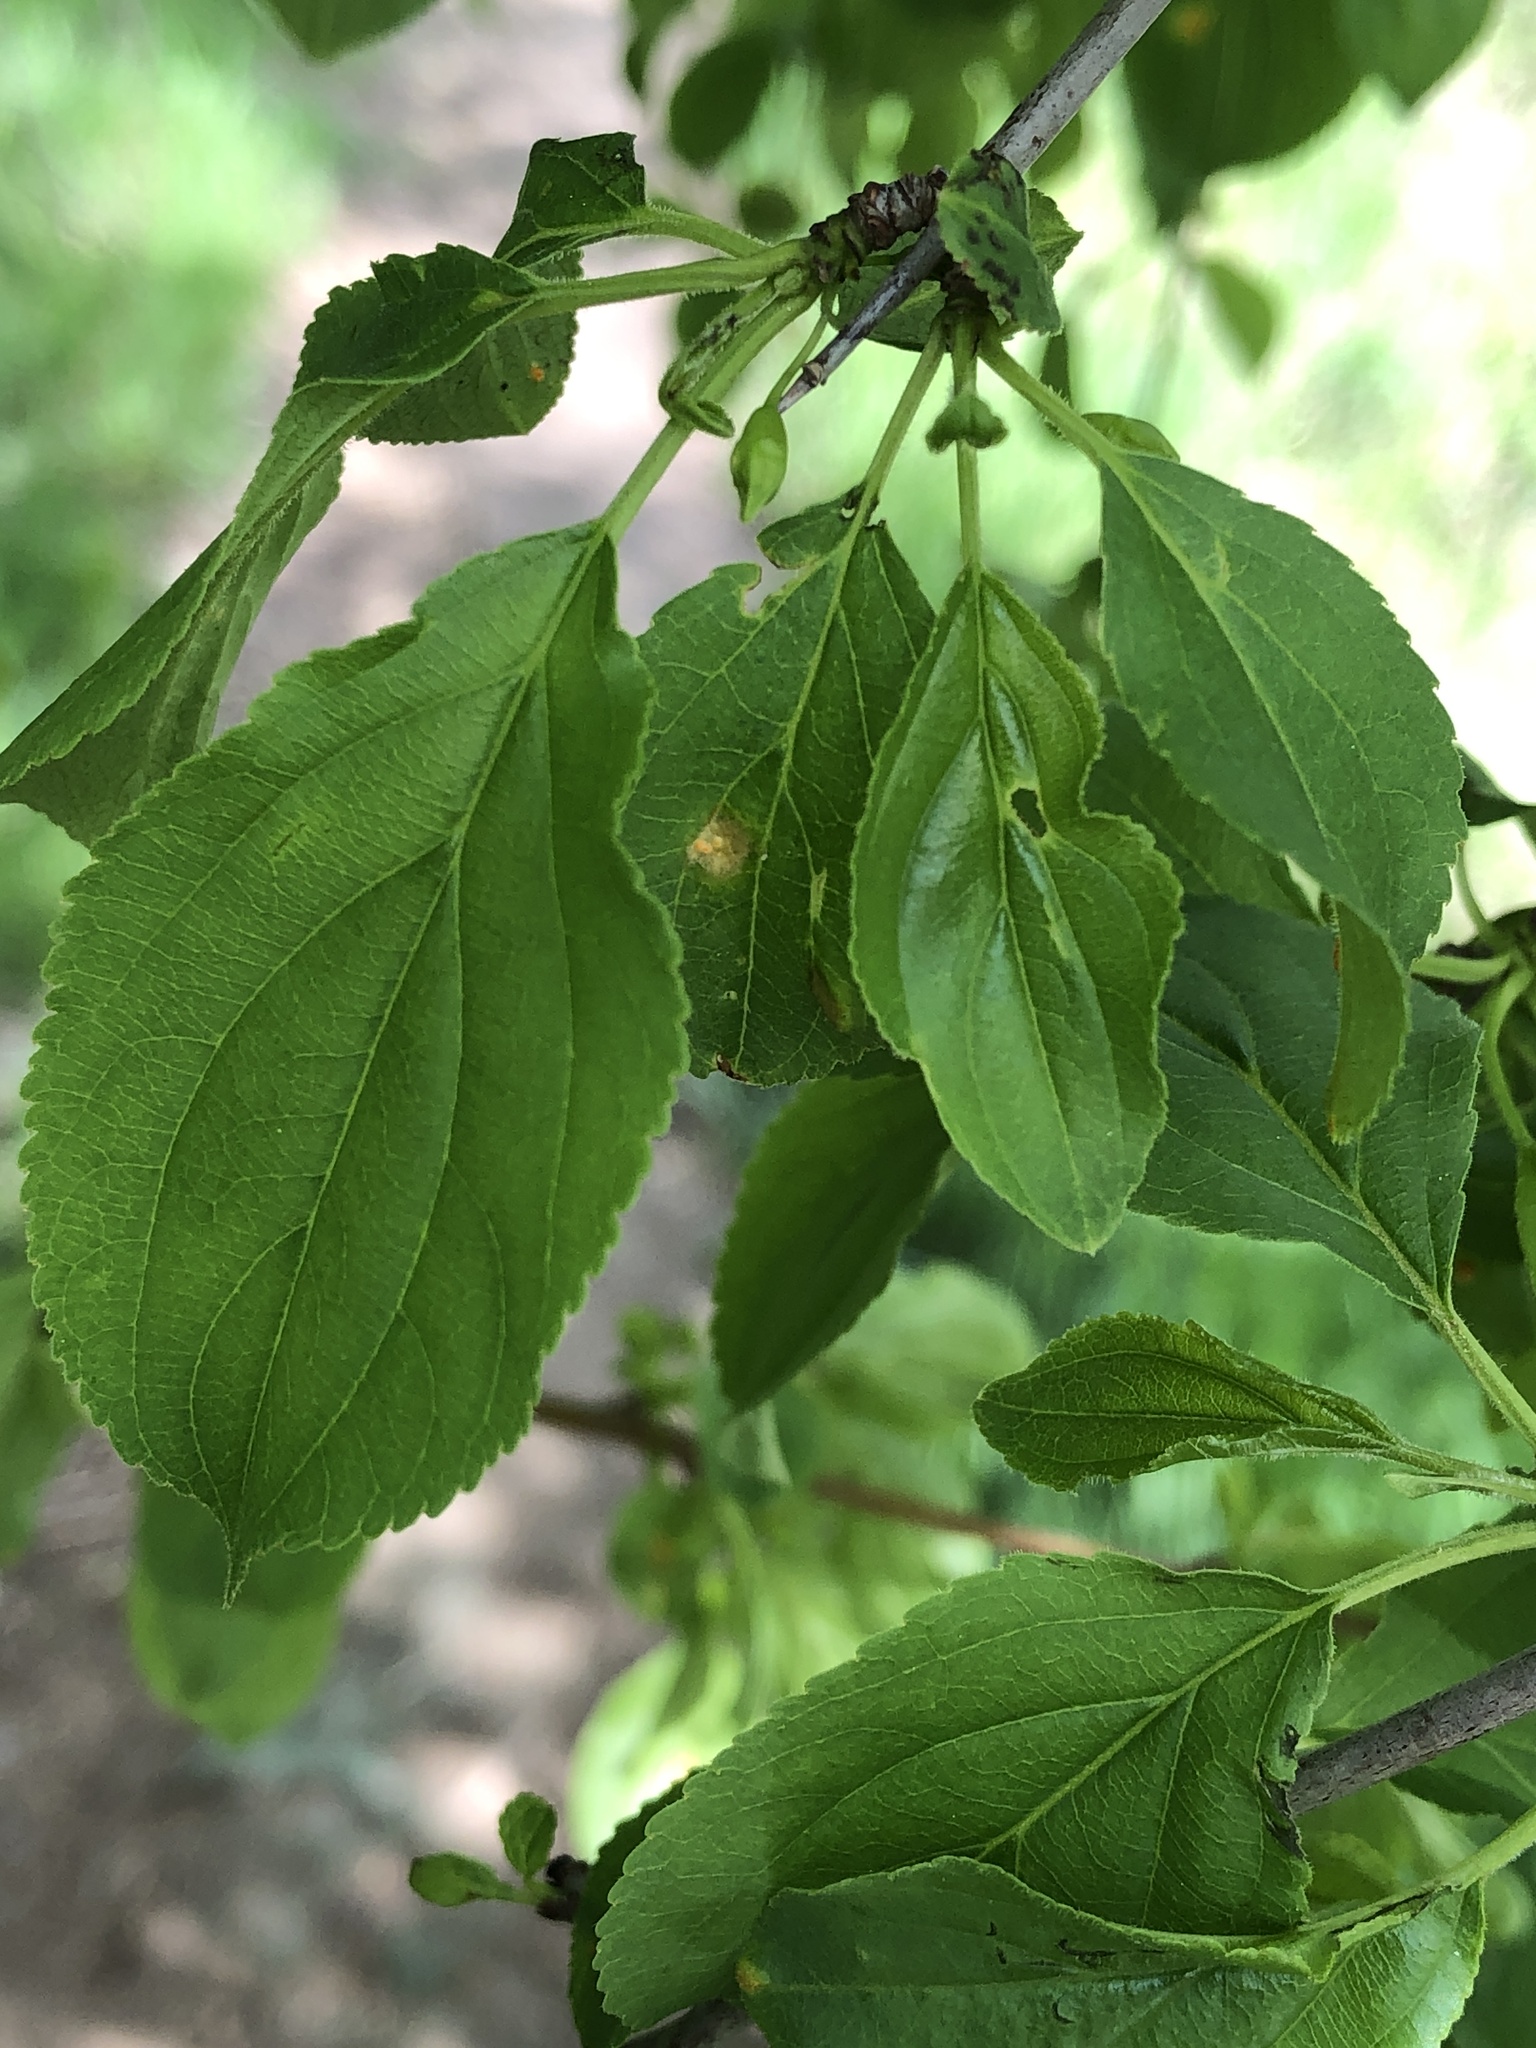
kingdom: Plantae
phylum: Tracheophyta
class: Magnoliopsida
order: Rosales
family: Rhamnaceae
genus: Rhamnus
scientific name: Rhamnus cathartica
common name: Common buckthorn
